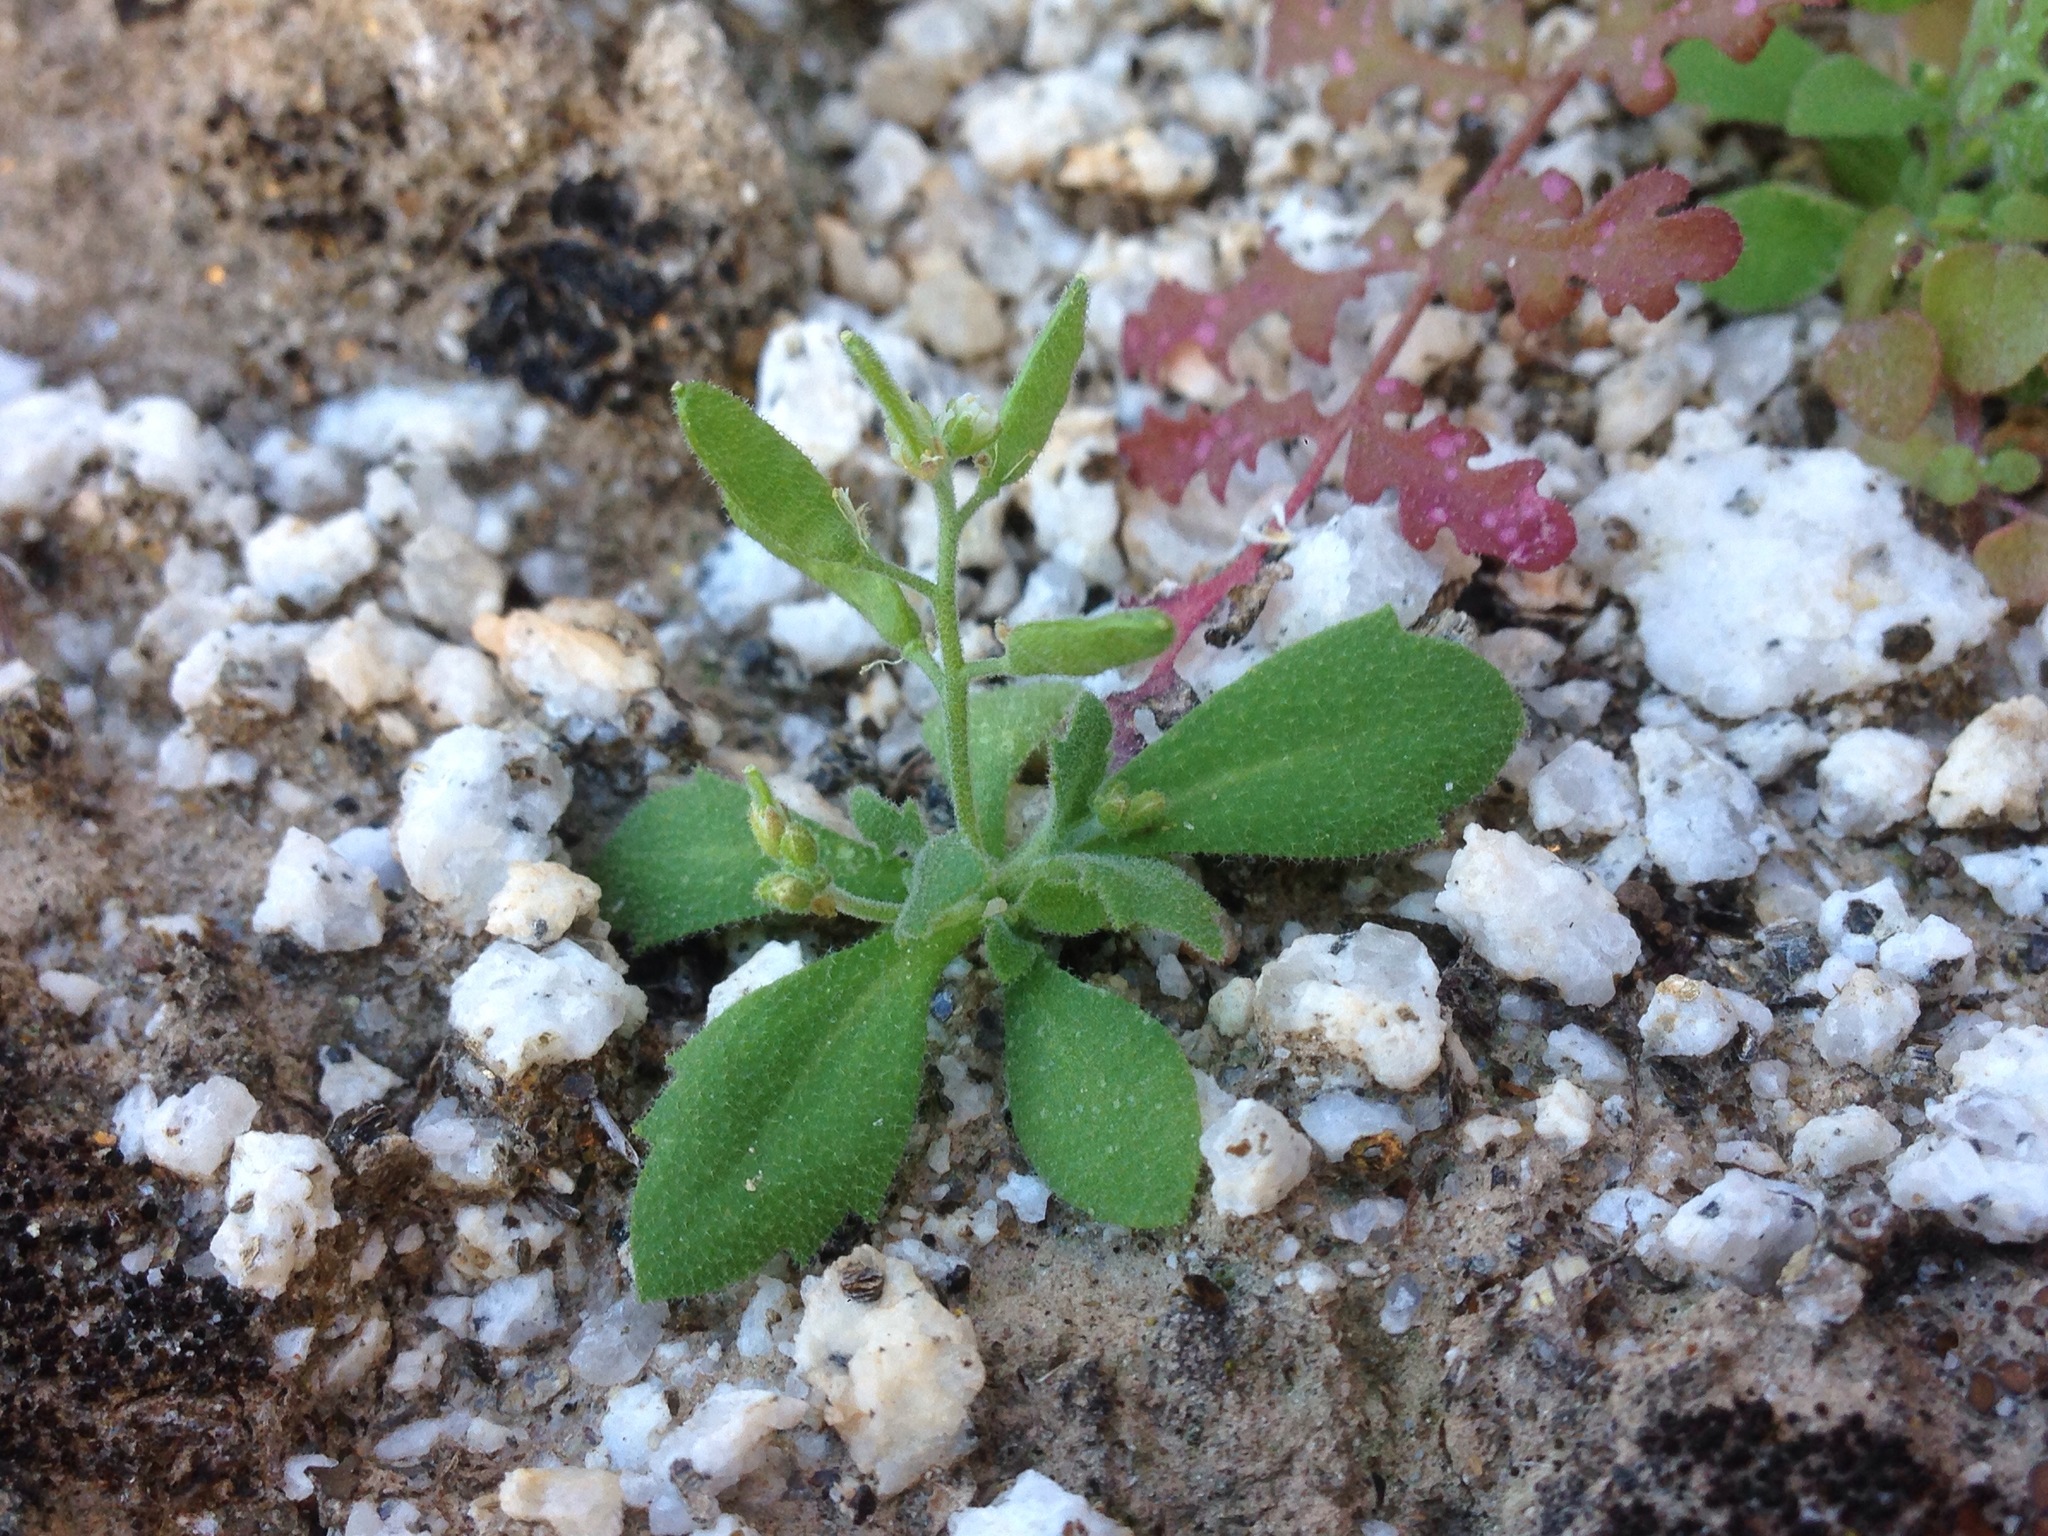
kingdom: Plantae
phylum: Tracheophyta
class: Magnoliopsida
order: Brassicales
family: Brassicaceae
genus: Tomostima
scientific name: Tomostima cuneifolia
